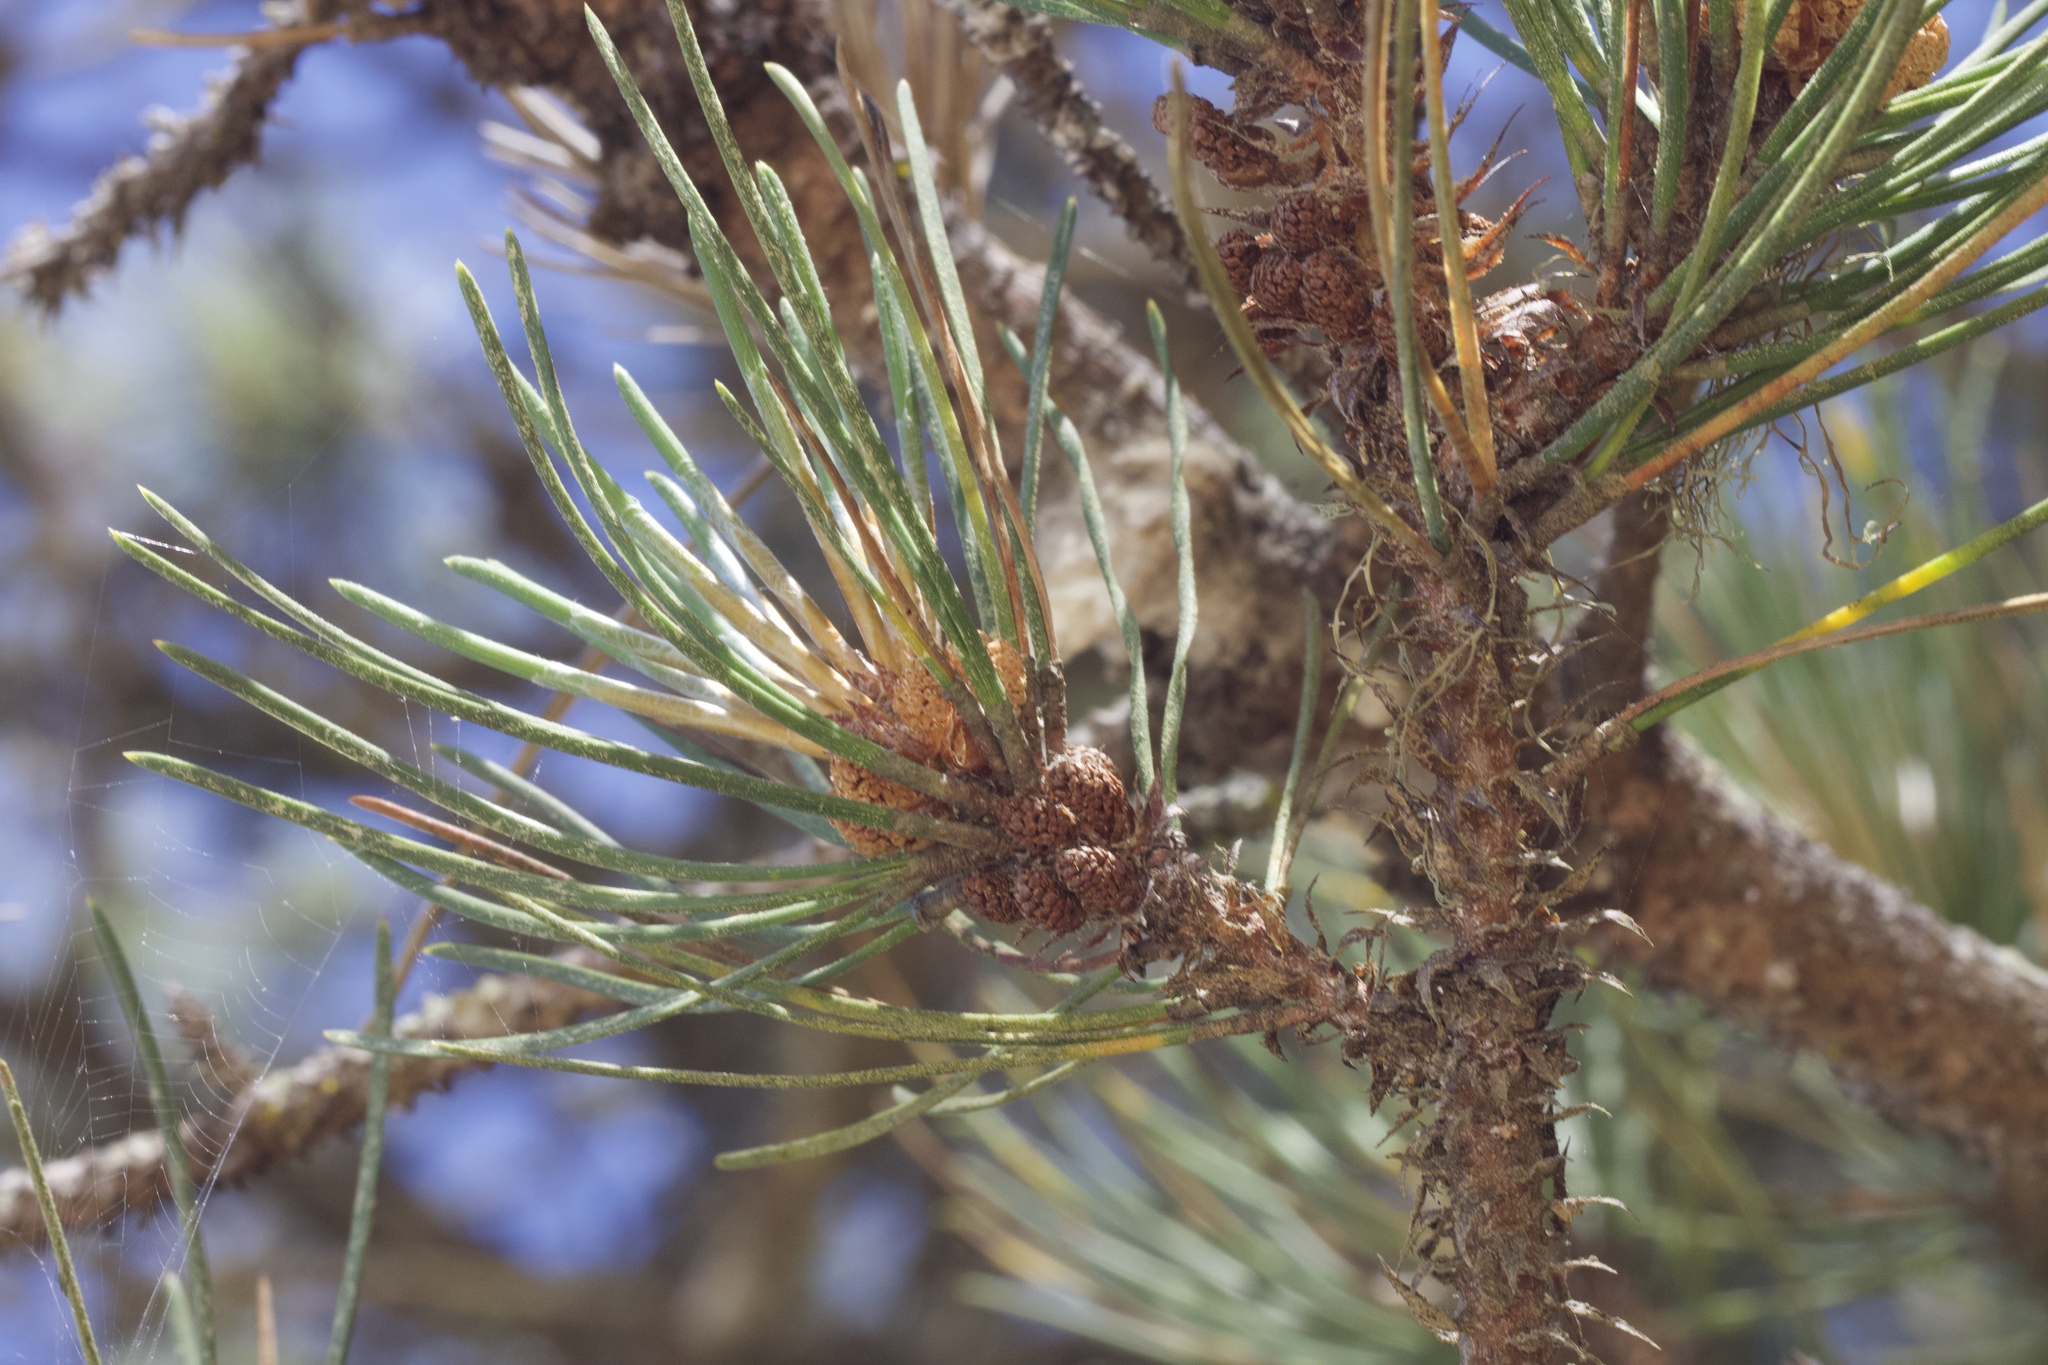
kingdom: Plantae
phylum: Tracheophyta
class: Pinopsida
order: Pinales
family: Pinaceae
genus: Pinus
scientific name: Pinus muricata
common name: Bishop pine
